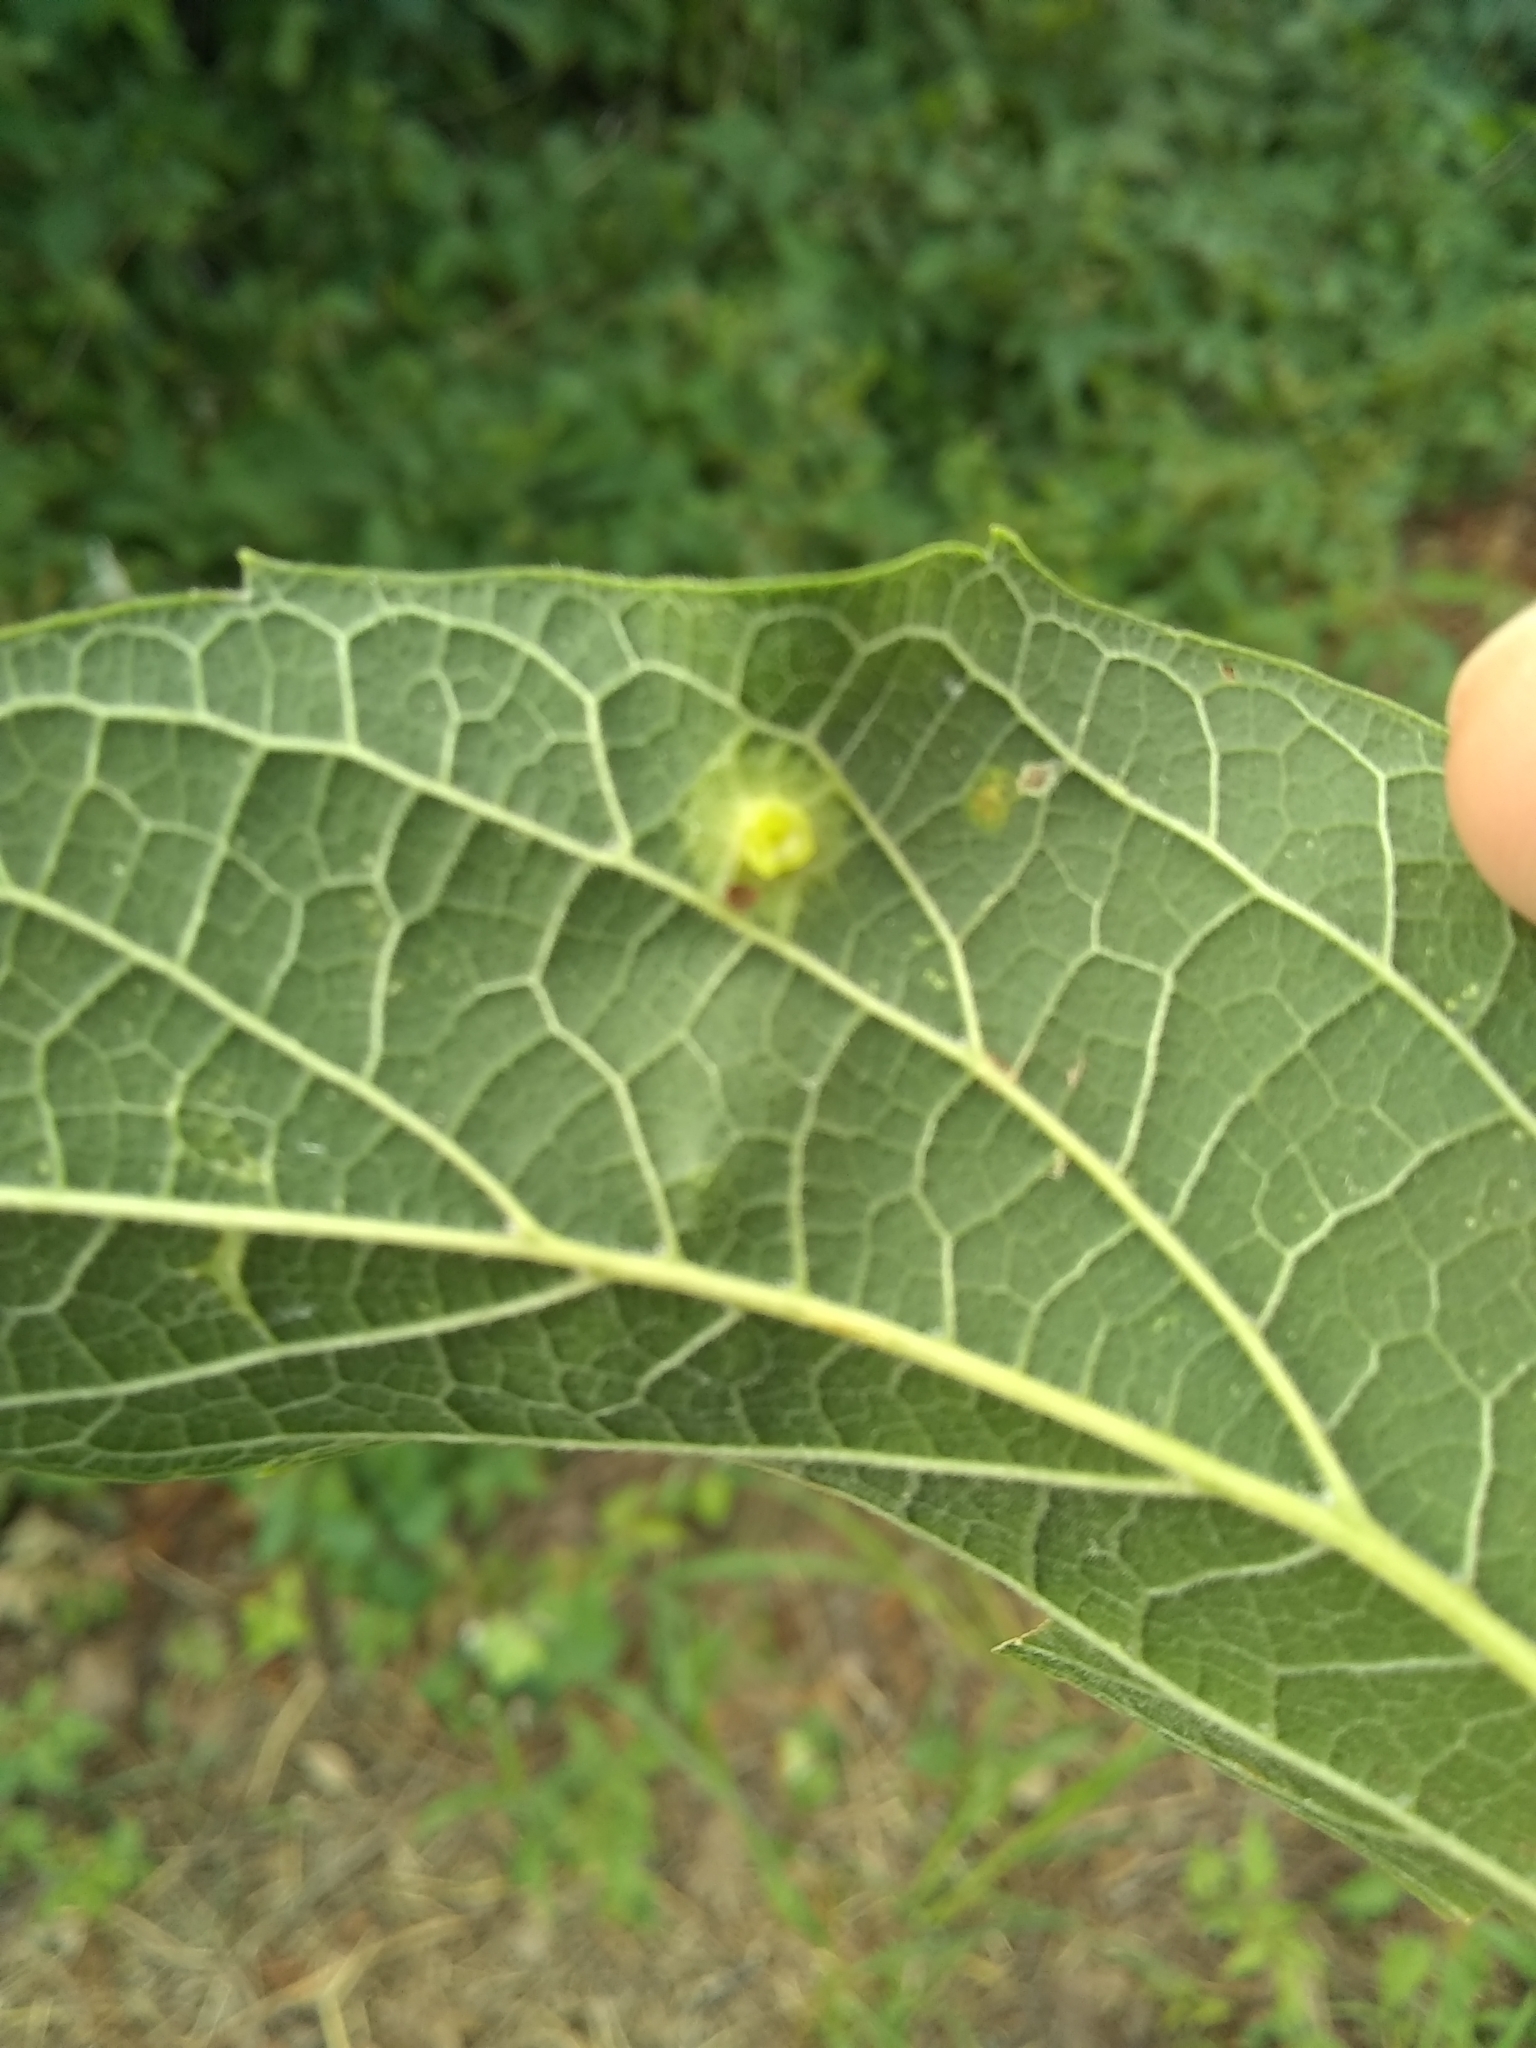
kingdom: Animalia
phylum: Arthropoda
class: Insecta
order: Hemiptera
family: Aphalaridae
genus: Pachypsylla
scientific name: Pachypsylla celtidisasterisca
